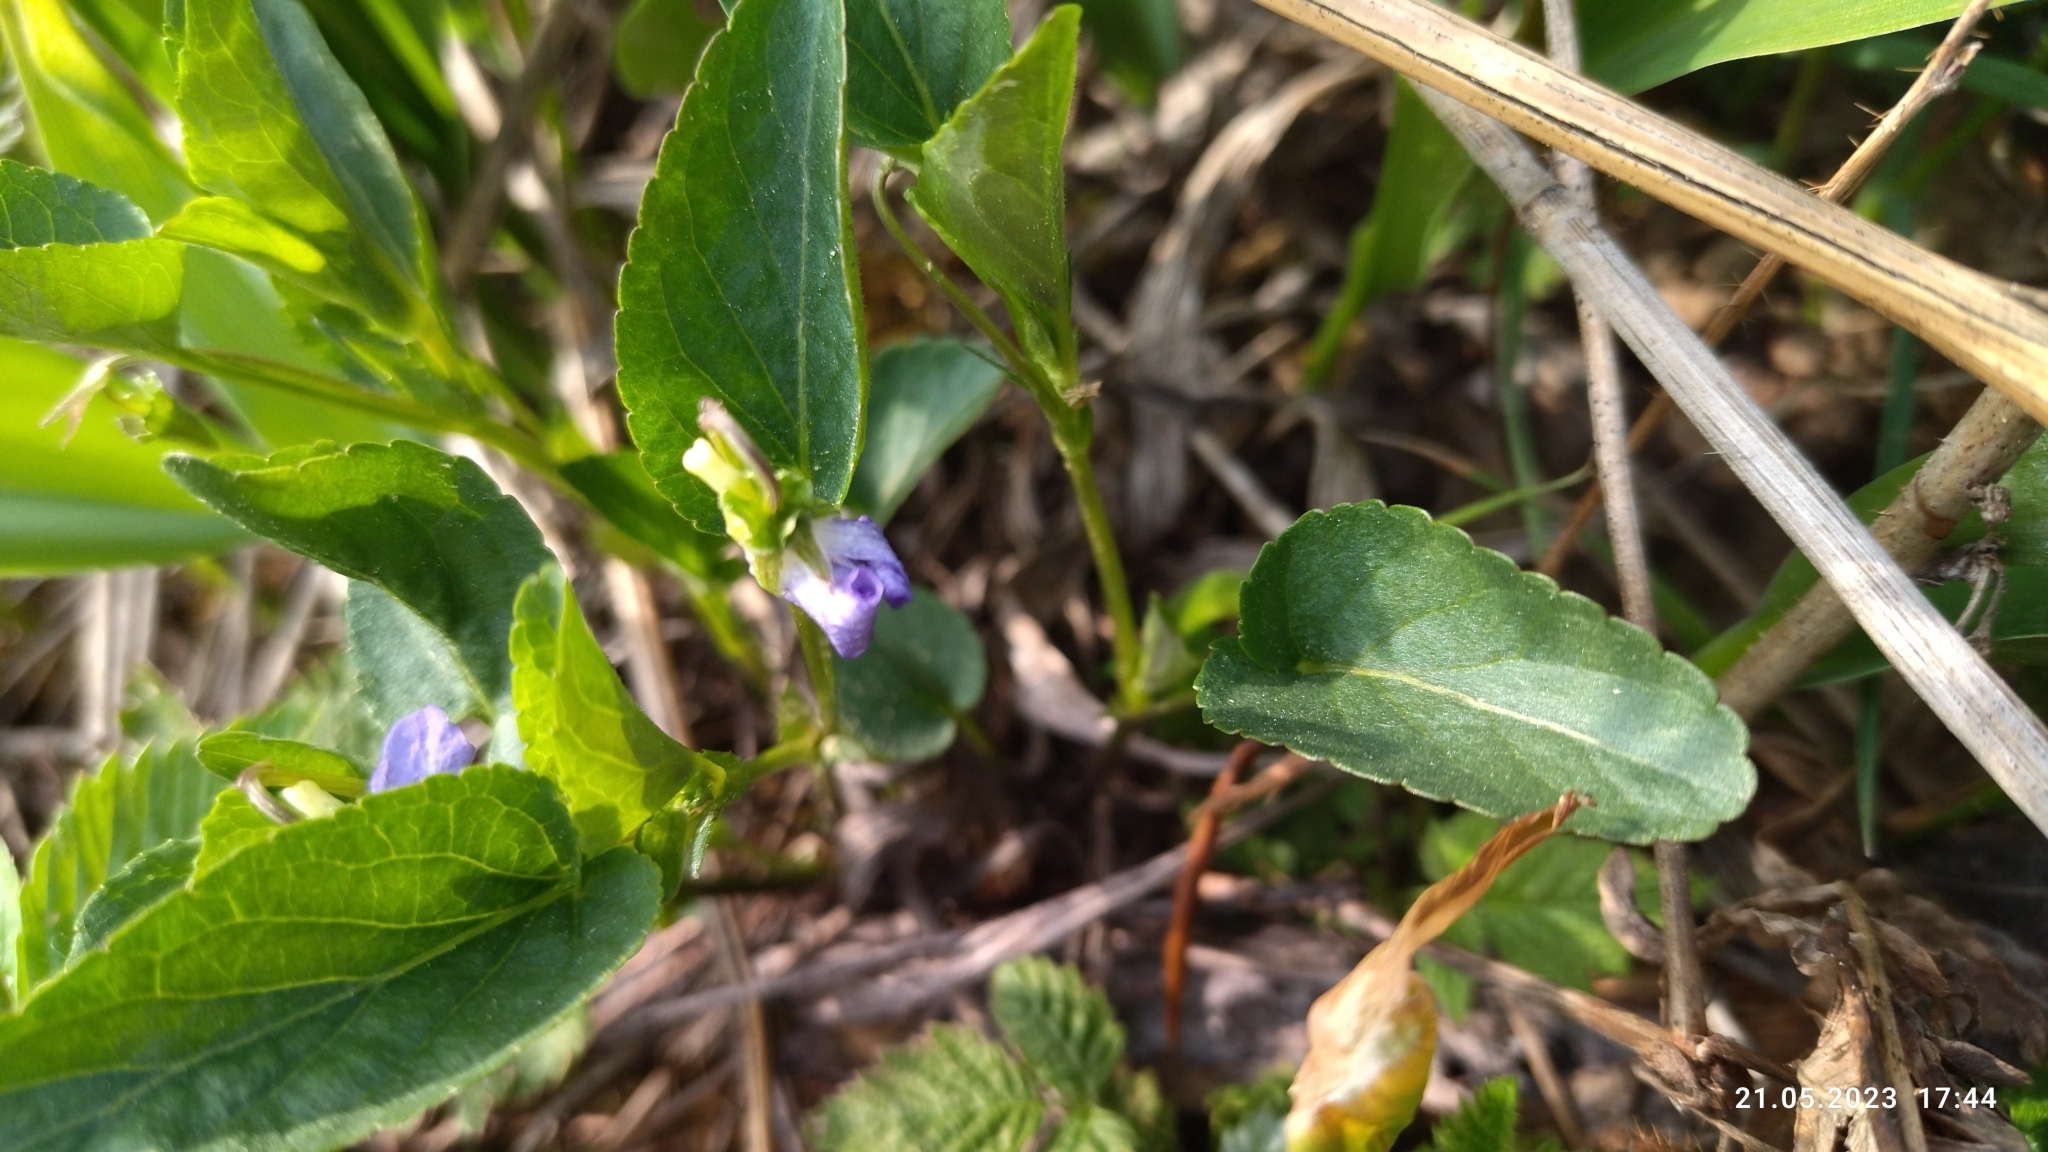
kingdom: Plantae
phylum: Tracheophyta
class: Magnoliopsida
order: Malpighiales
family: Violaceae
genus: Viola
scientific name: Viola canina
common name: Heath dog-violet
